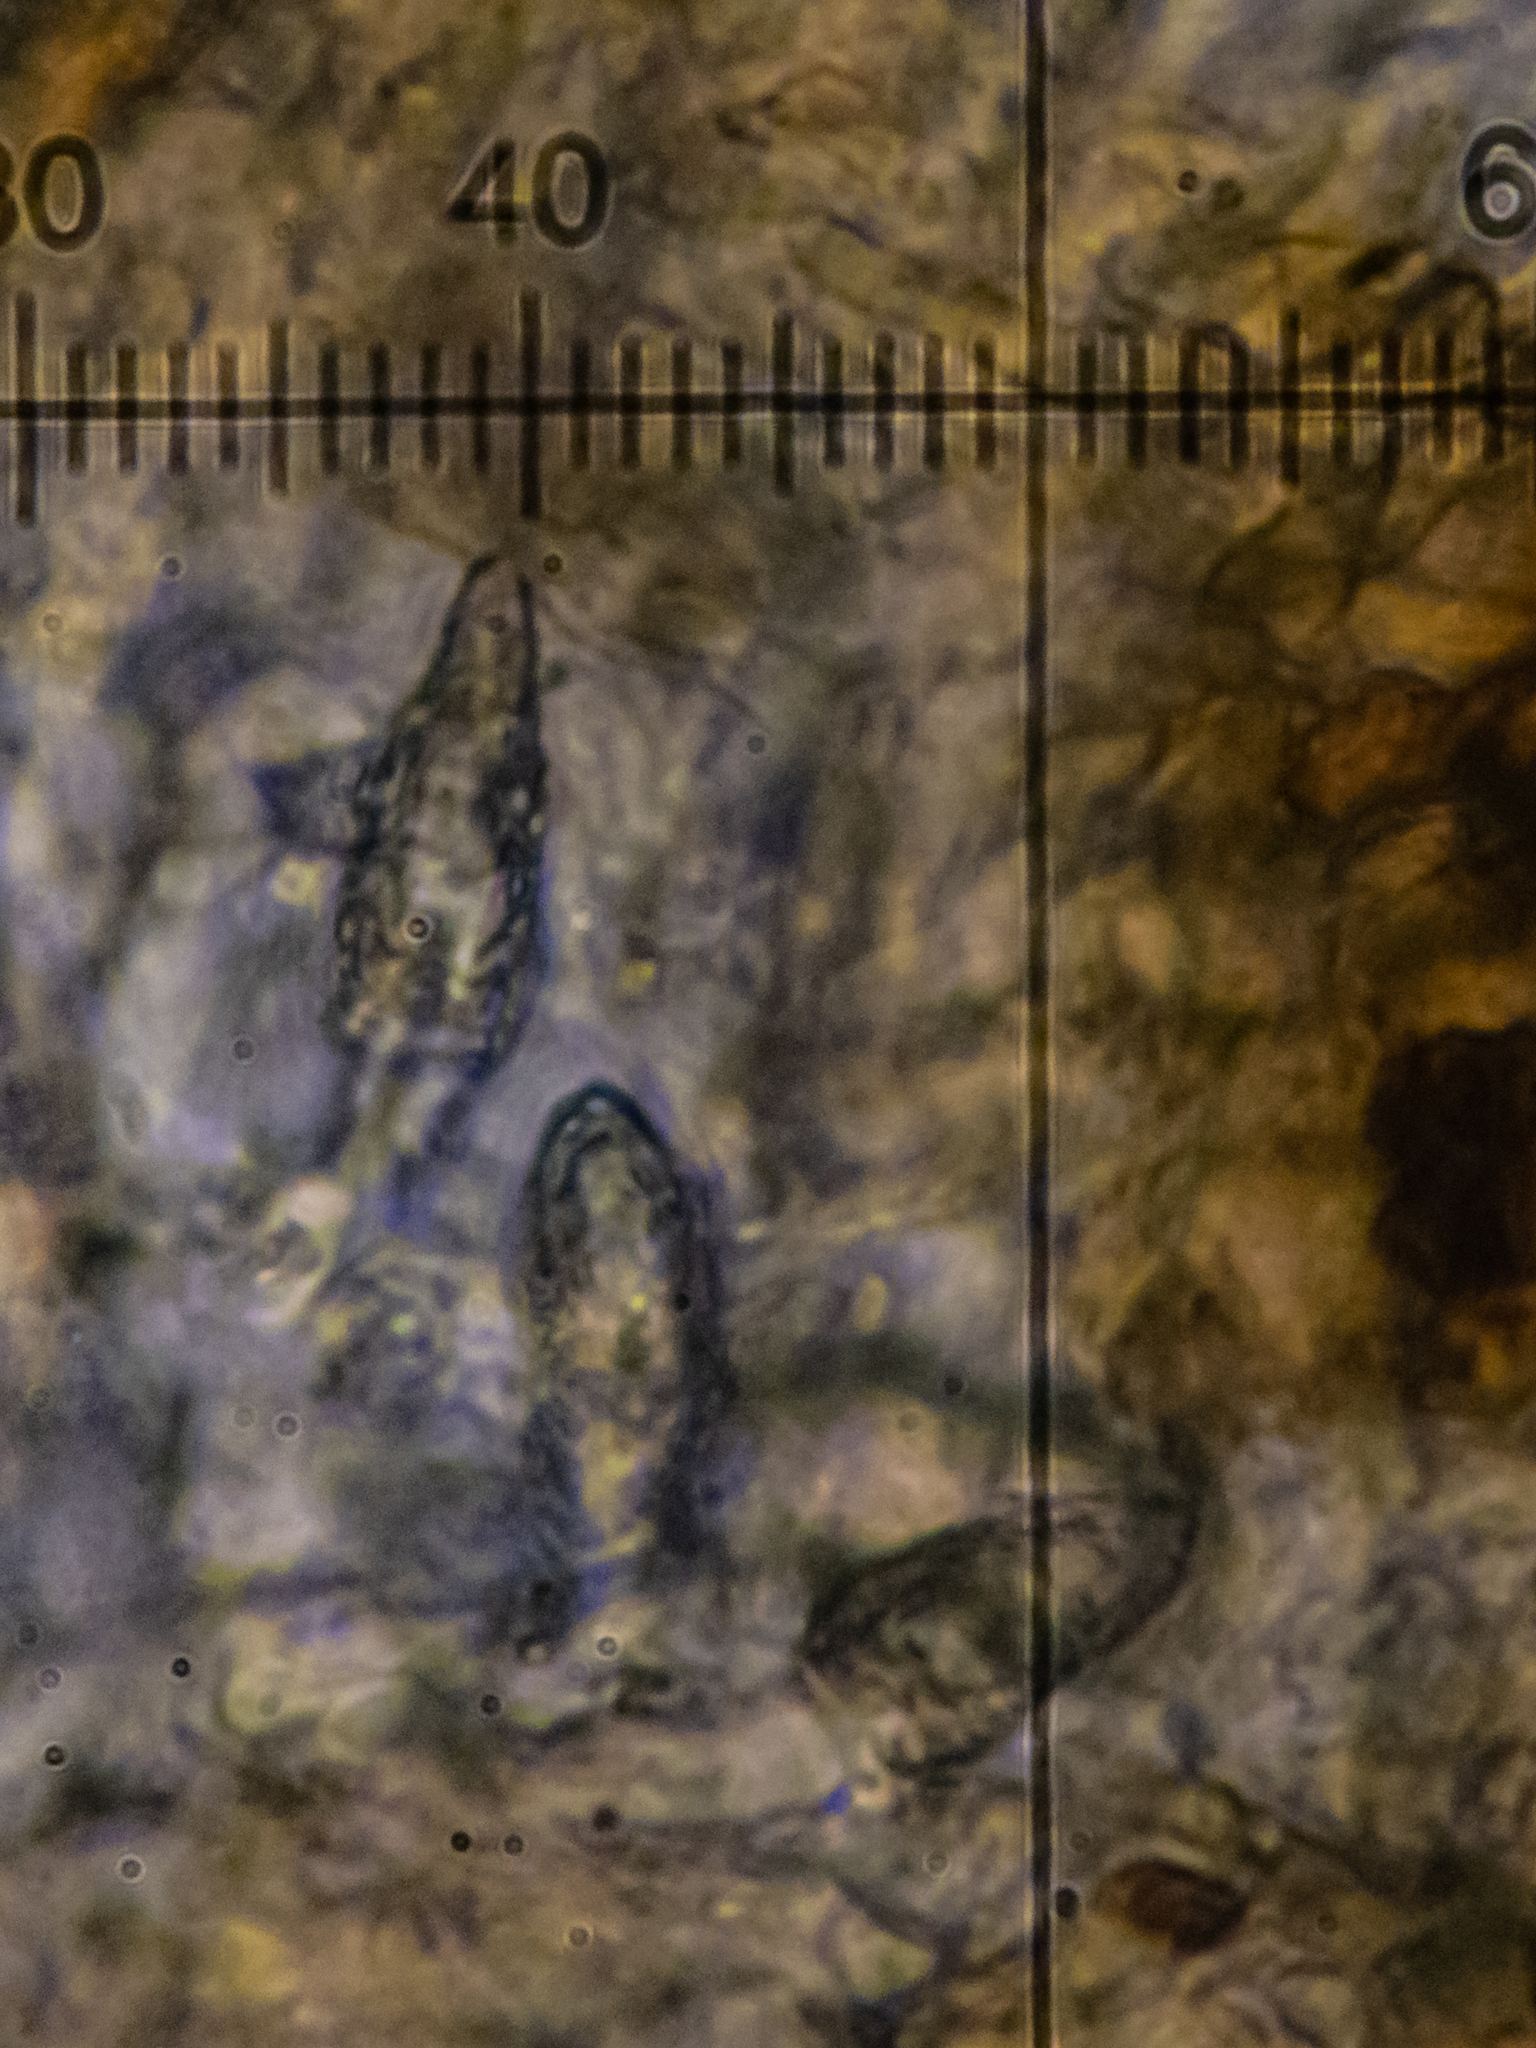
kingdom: Fungi
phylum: Basidiomycota
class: Agaricomycetes
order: Russulales
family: Peniophoraceae
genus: Peniophora
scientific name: Peniophora quercina
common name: Oak crust
